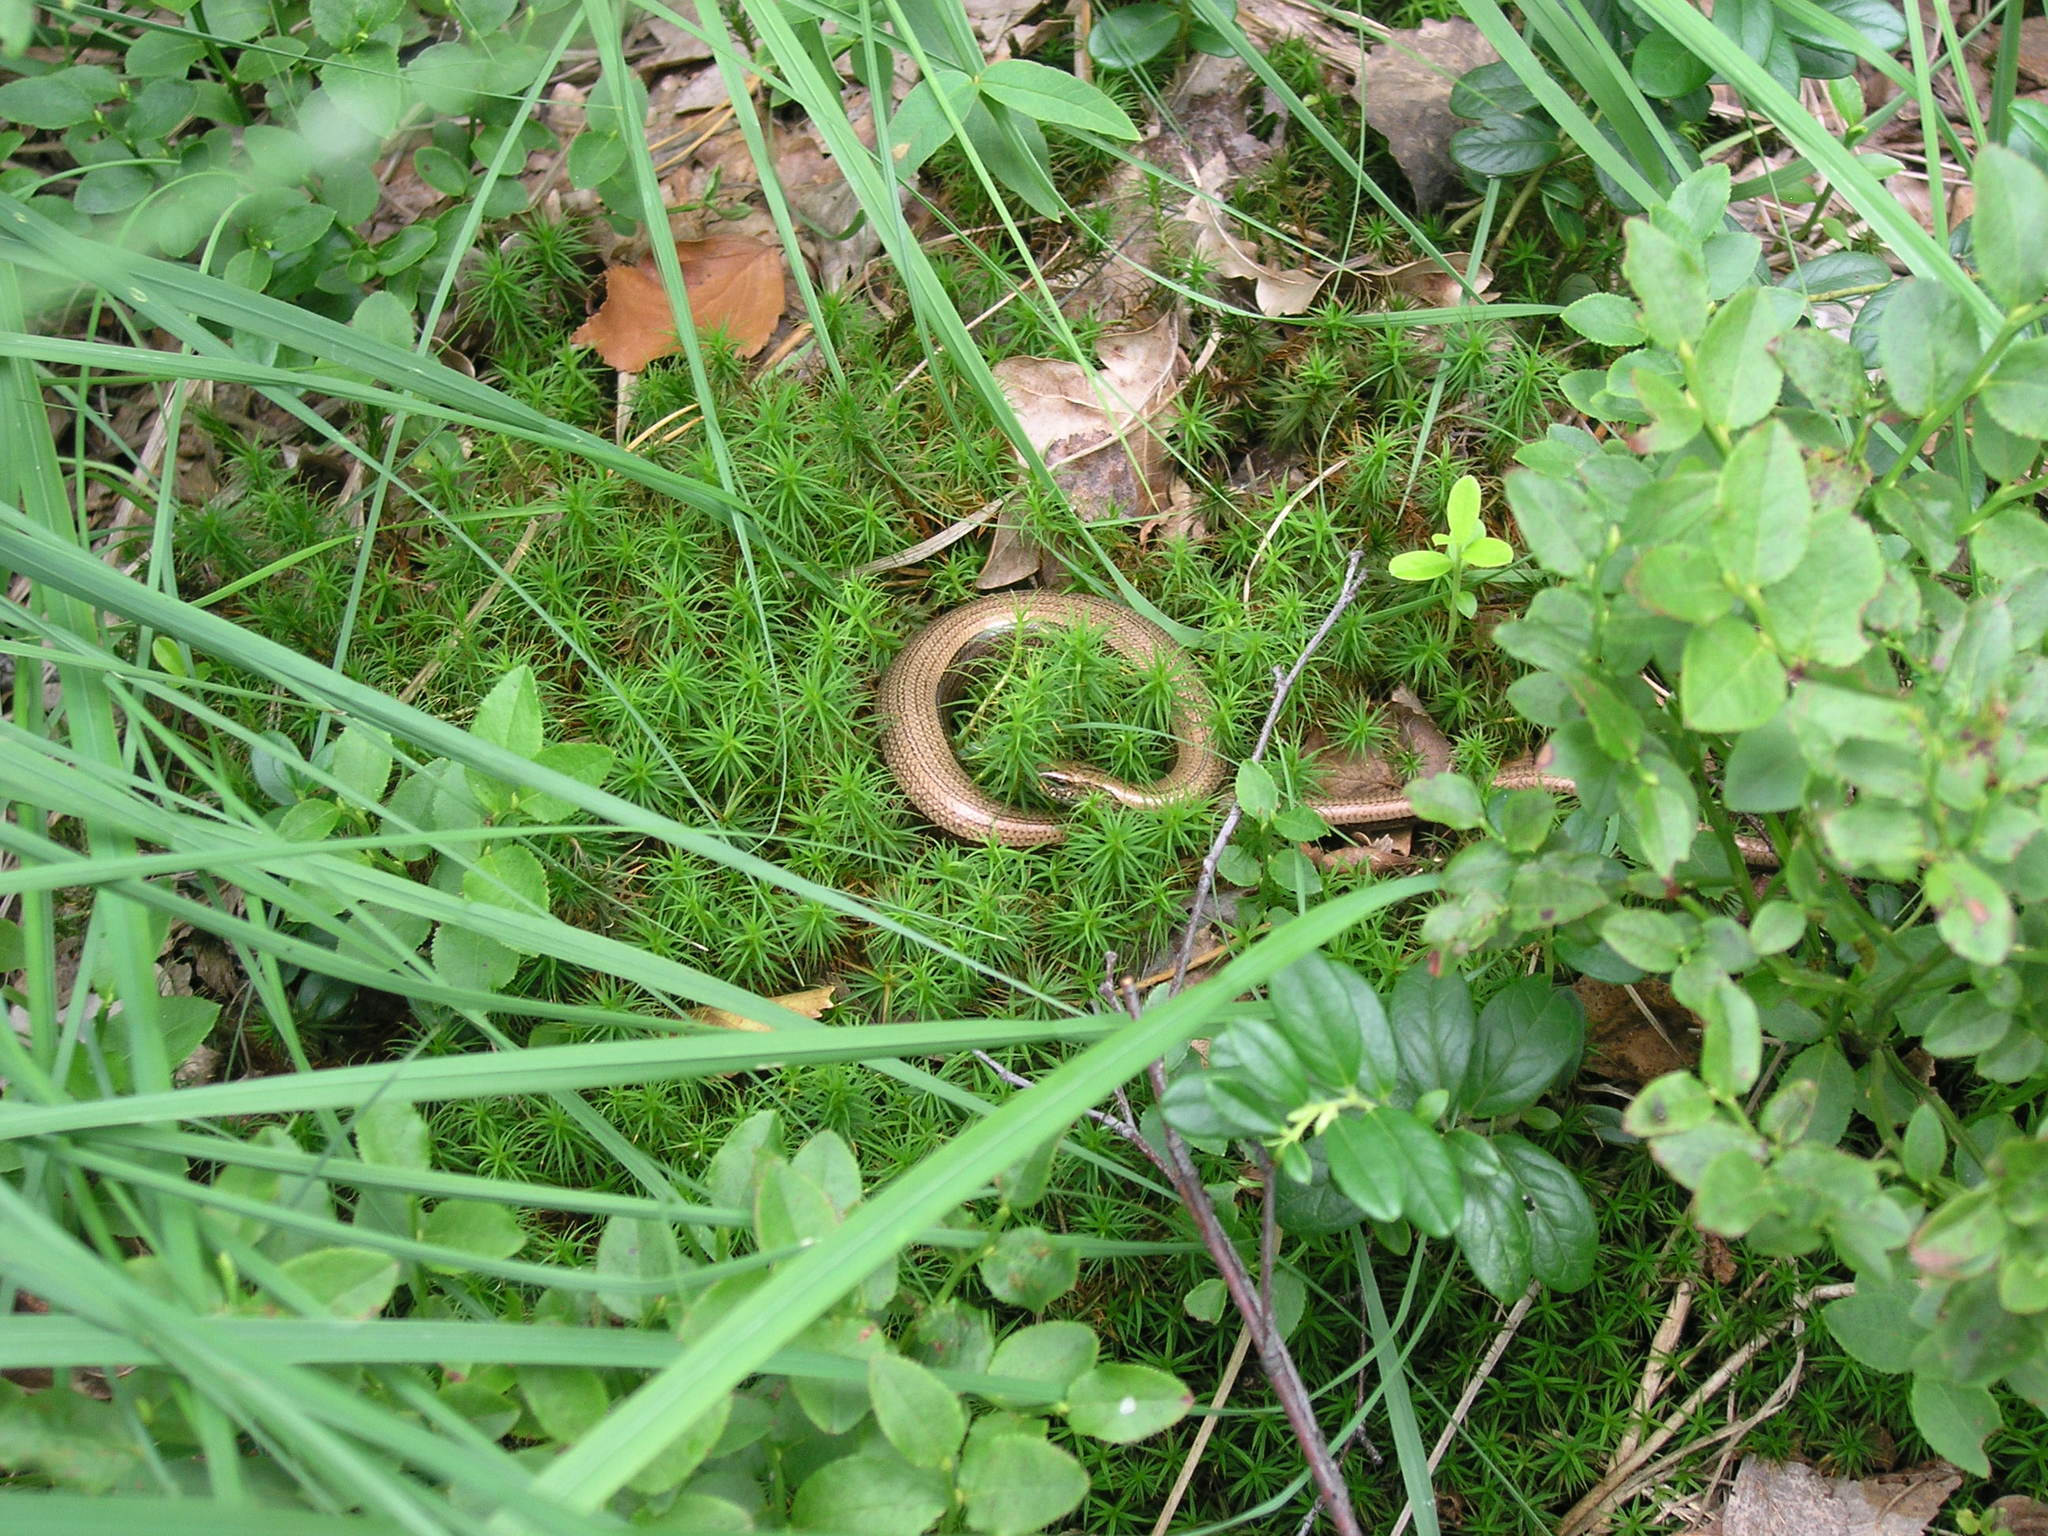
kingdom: Animalia
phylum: Chordata
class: Squamata
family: Anguidae
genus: Anguis
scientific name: Anguis colchica
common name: Slow worm
